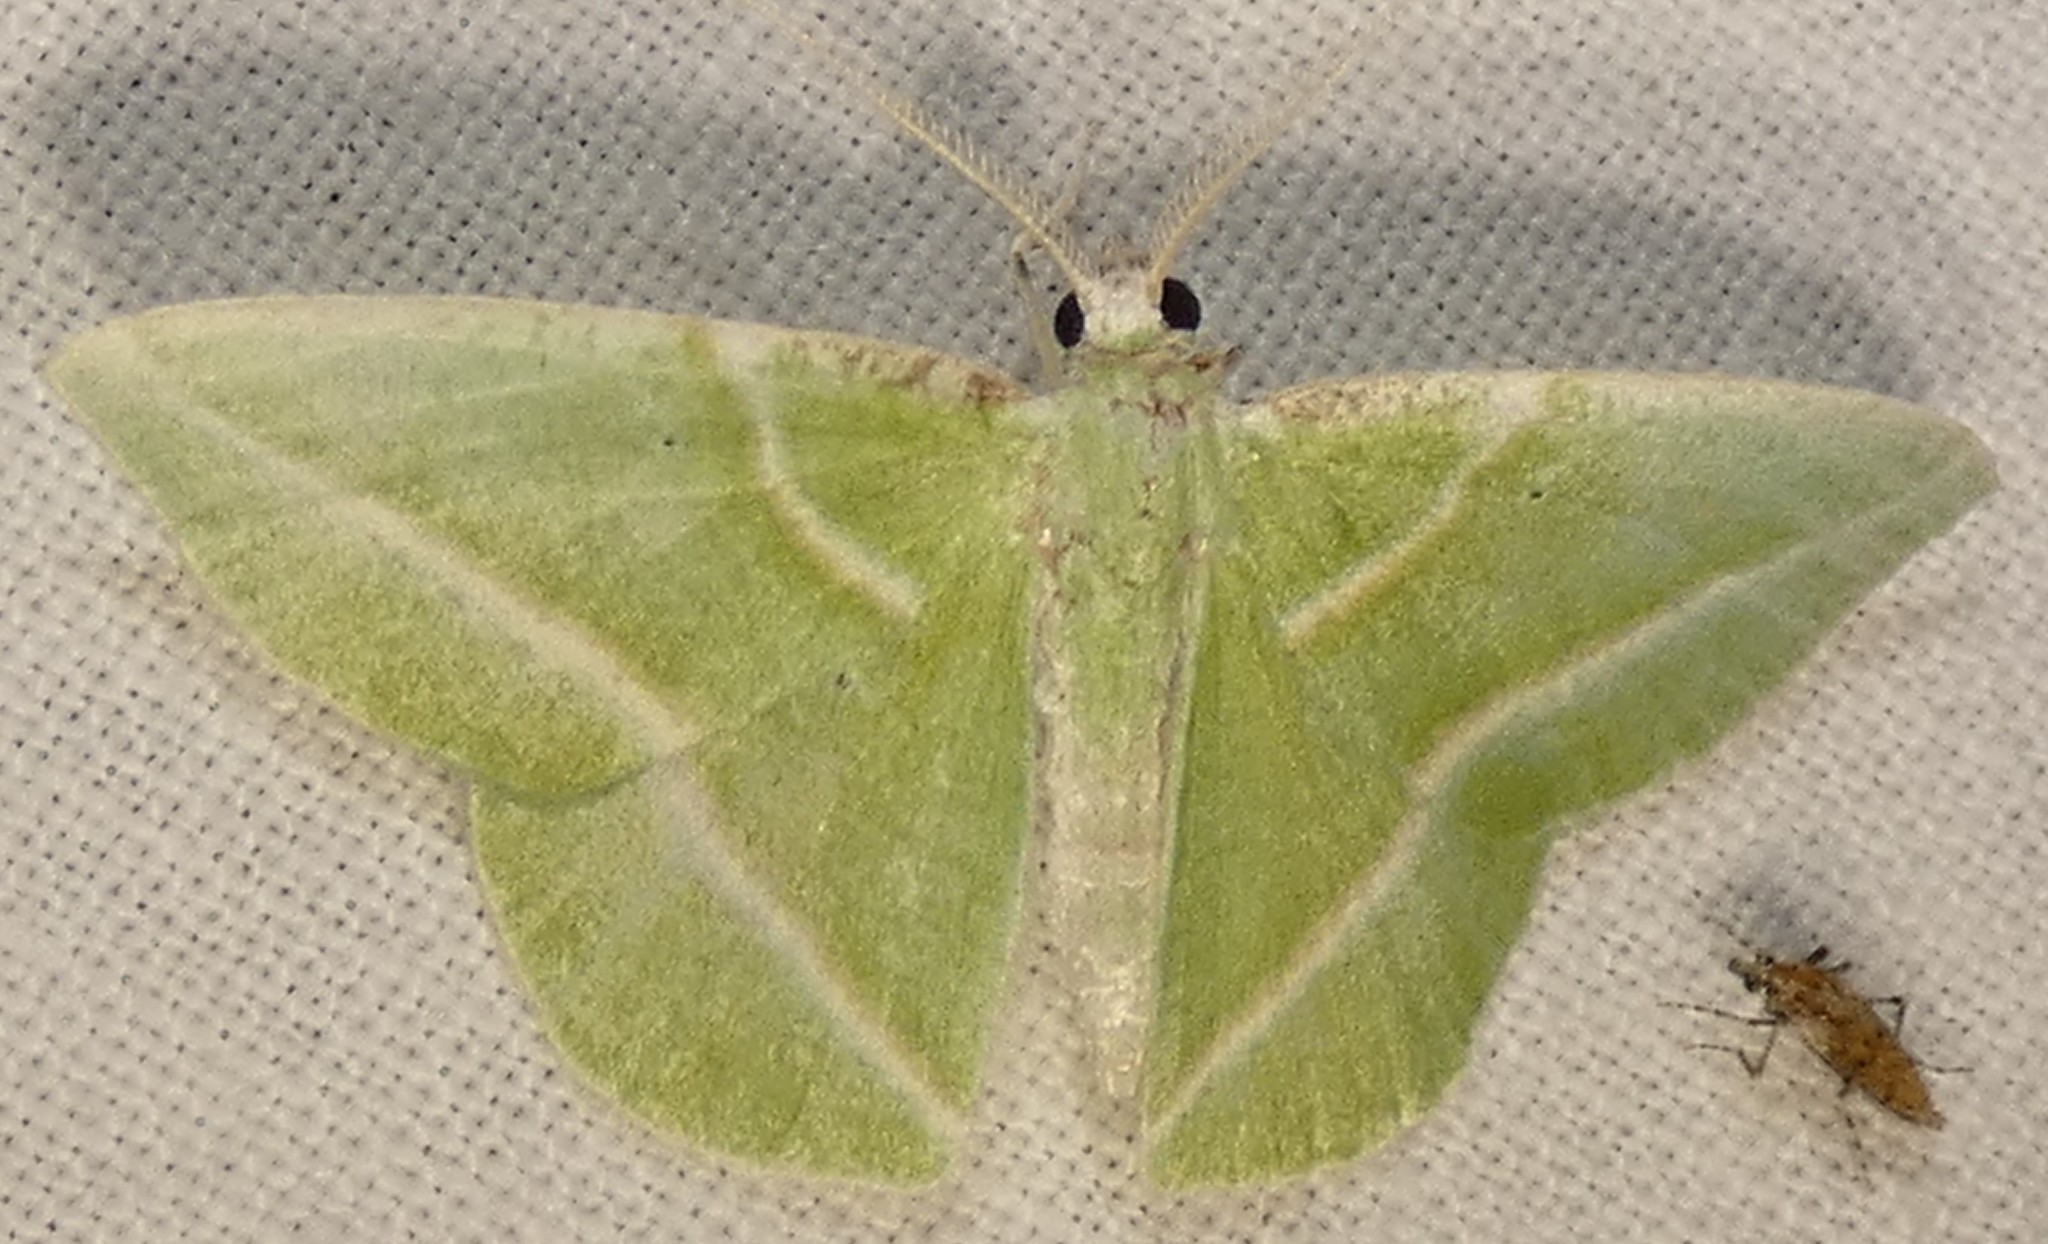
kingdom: Animalia
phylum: Arthropoda
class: Insecta
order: Lepidoptera
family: Geometridae
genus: Dichorda
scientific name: Dichorda iridaria
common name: Showy emerald
